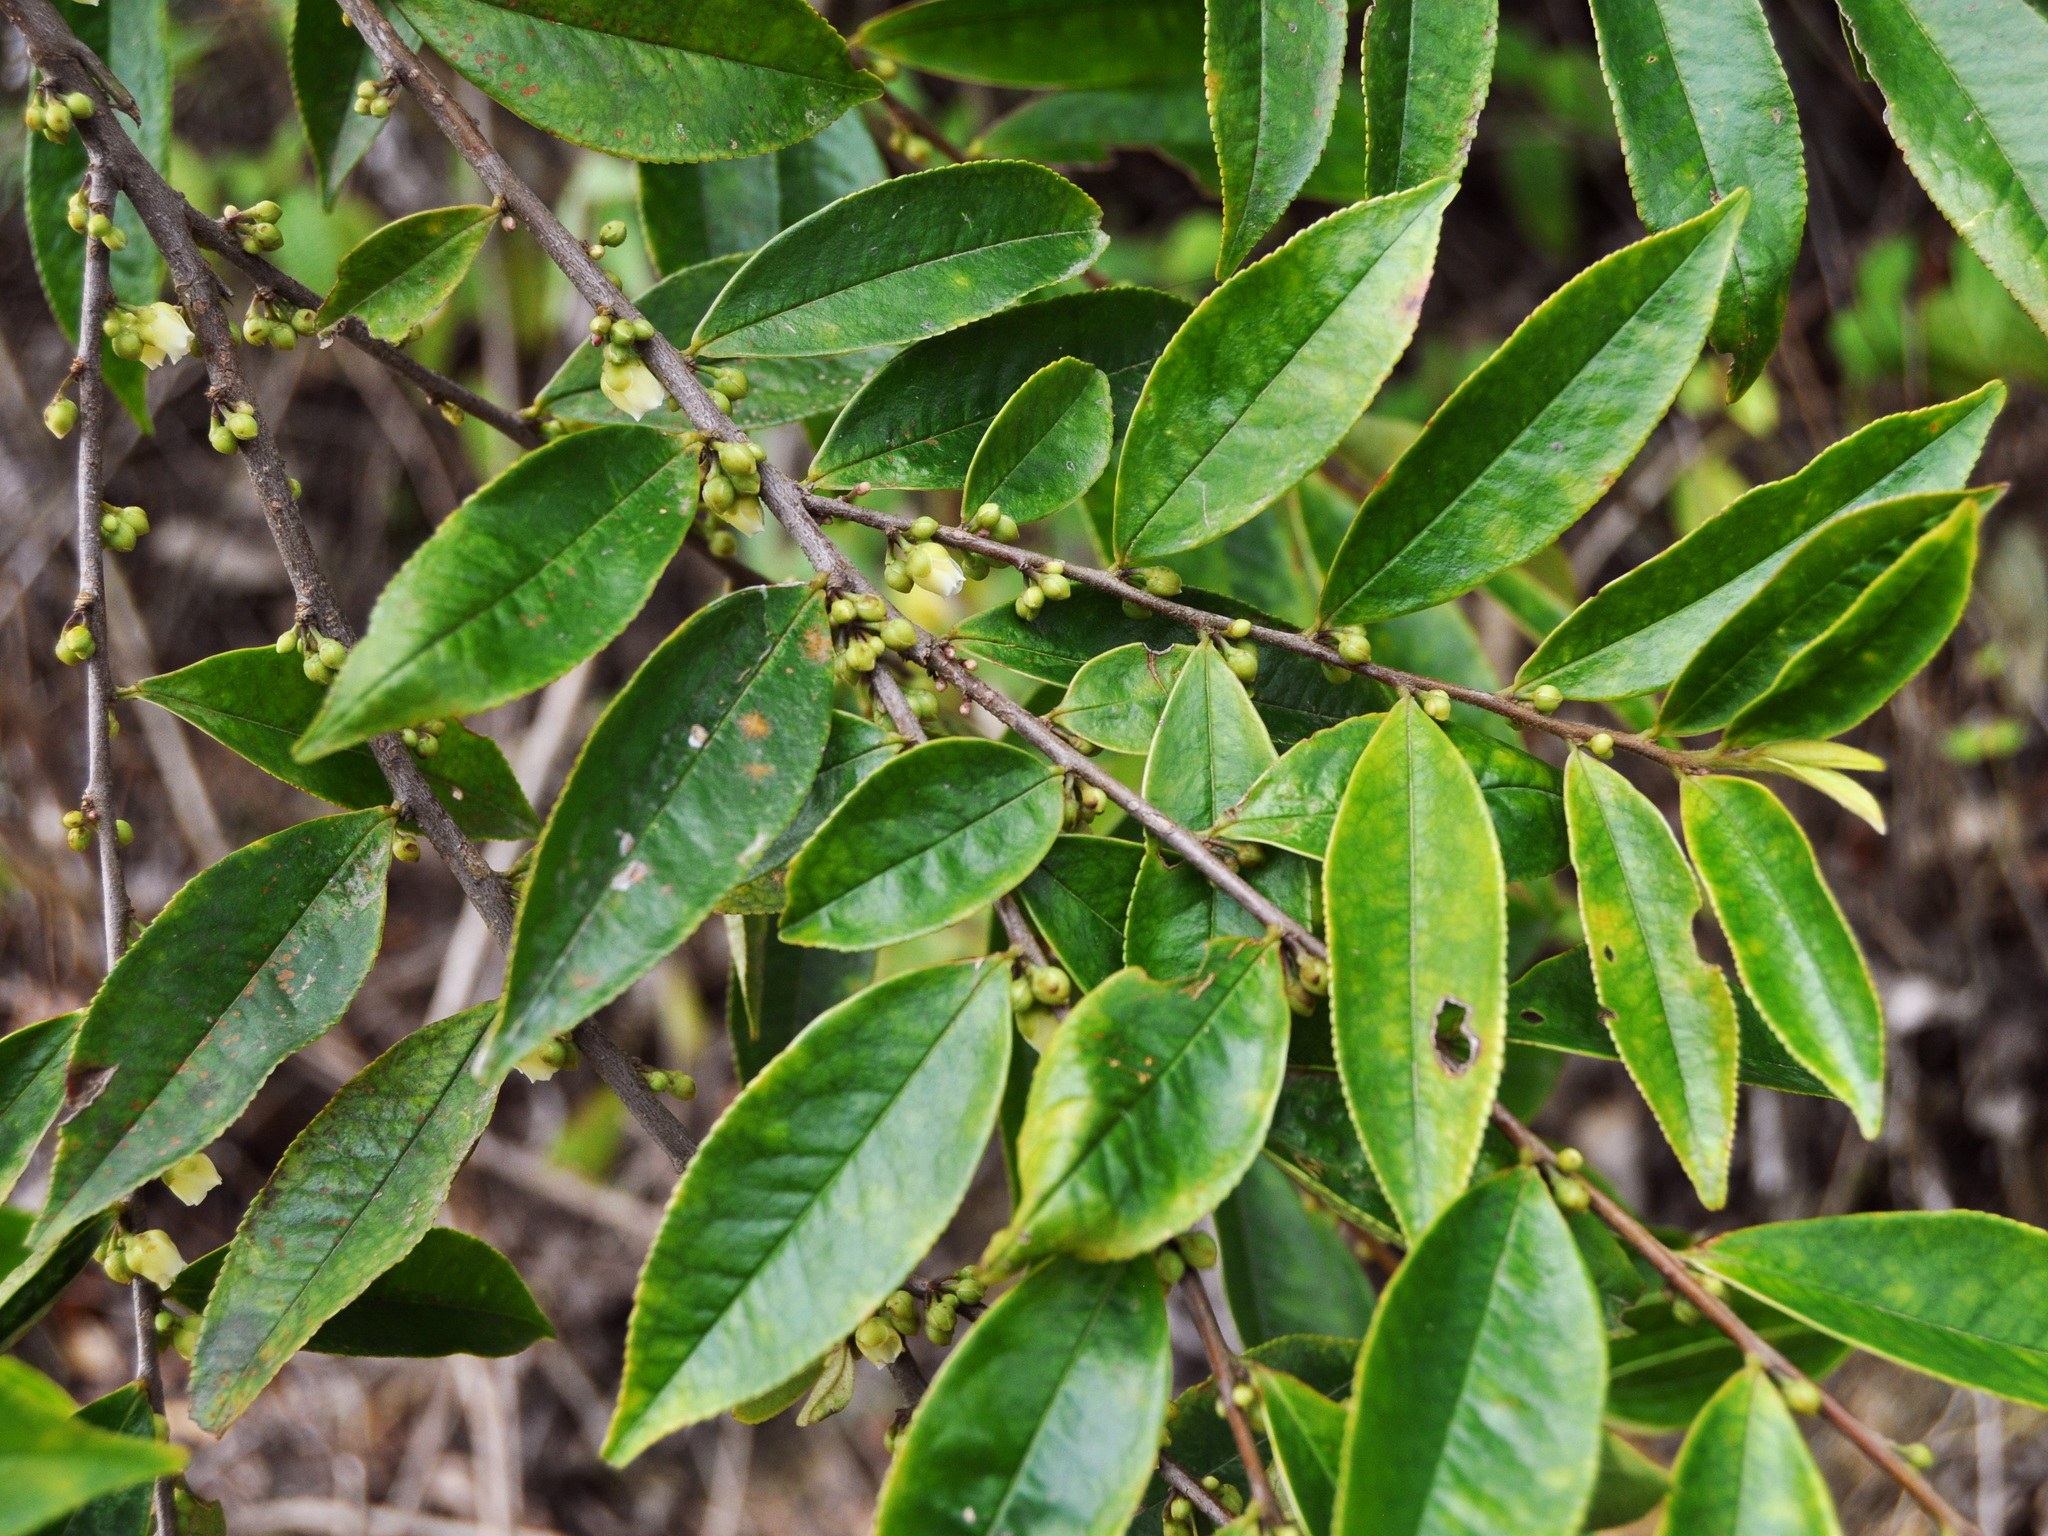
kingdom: Plantae
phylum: Tracheophyta
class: Magnoliopsida
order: Ericales
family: Pentaphylacaceae
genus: Eurya
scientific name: Eurya acuminata
